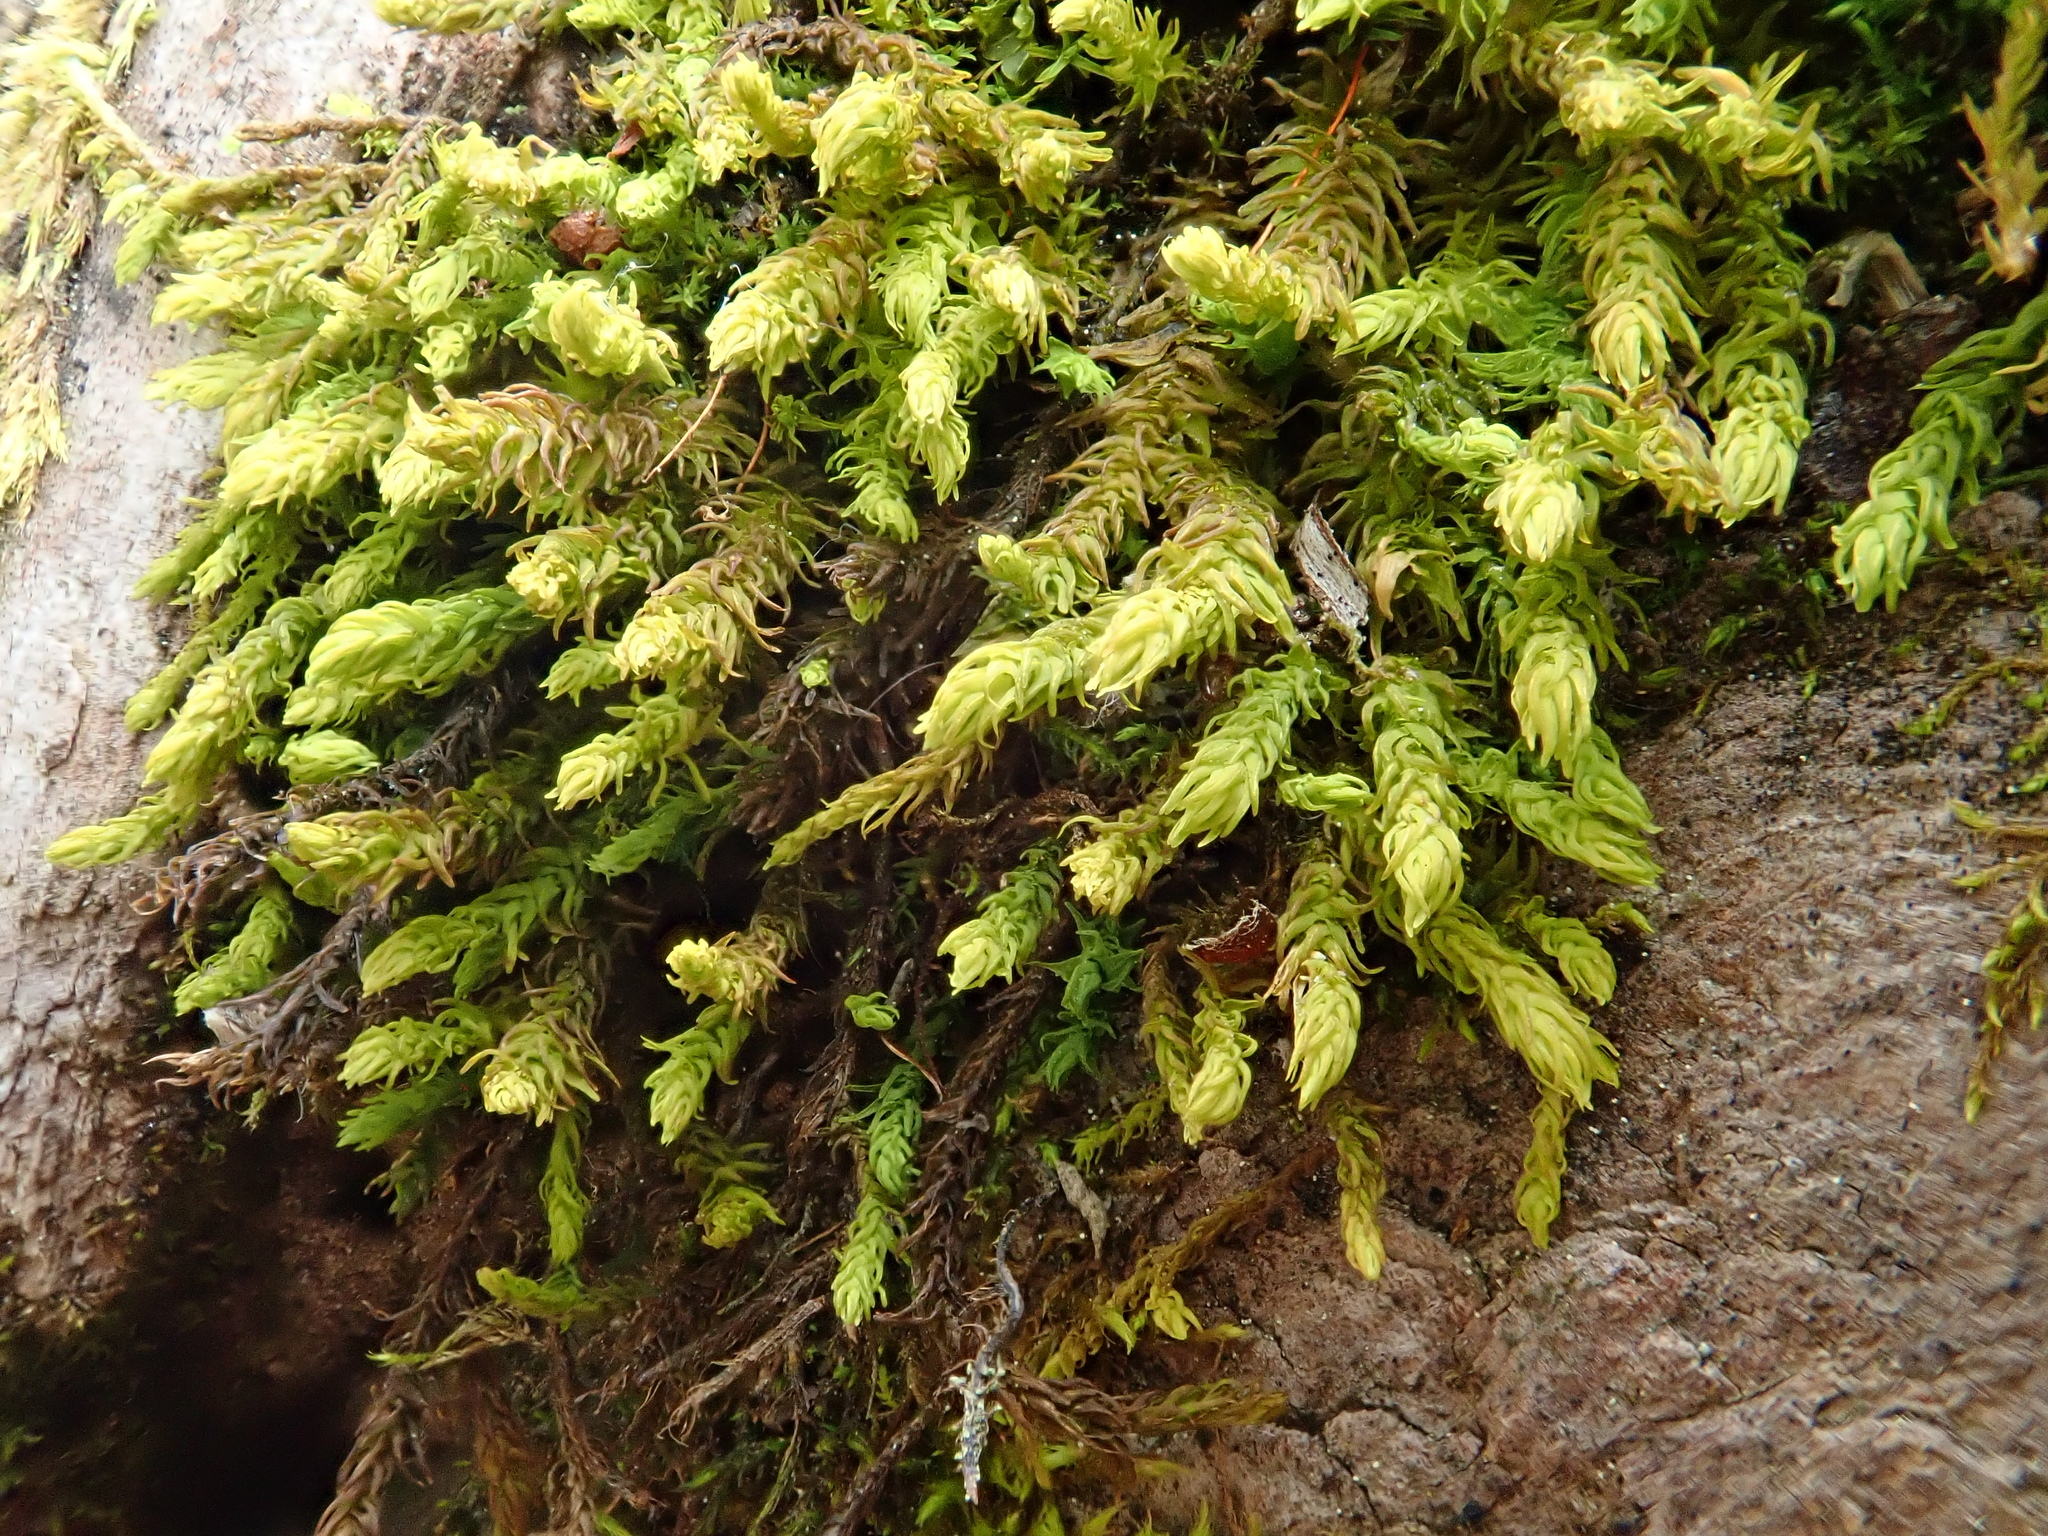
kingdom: Plantae
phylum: Bryophyta
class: Bryopsida
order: Hypnales
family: Anomodontaceae
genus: Anomodon
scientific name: Anomodon viticulosus
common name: Tall anomodon
